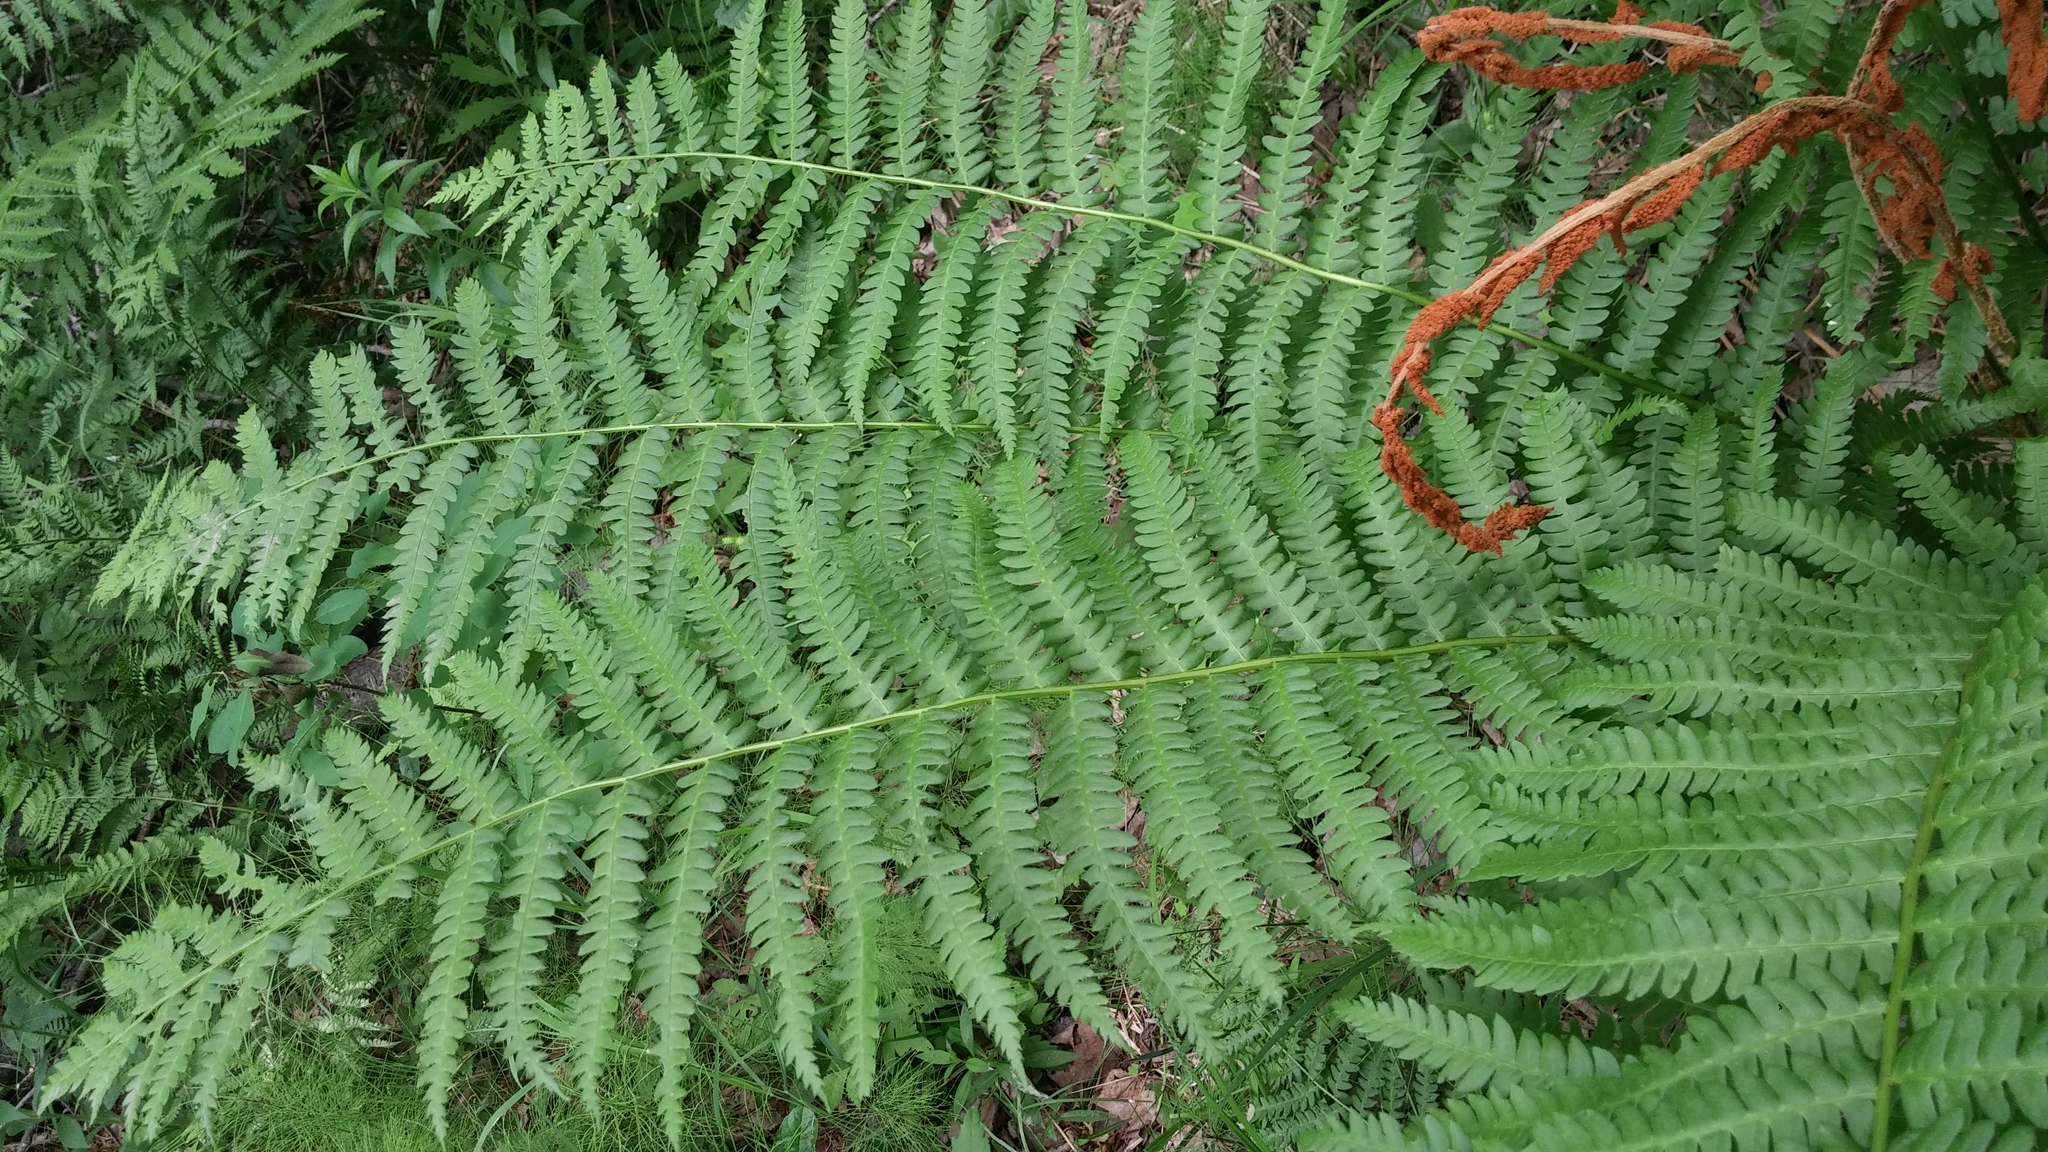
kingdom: Plantae
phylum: Tracheophyta
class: Polypodiopsida
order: Osmundales
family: Osmundaceae
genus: Osmundastrum
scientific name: Osmundastrum cinnamomeum
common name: Cinnamon fern
